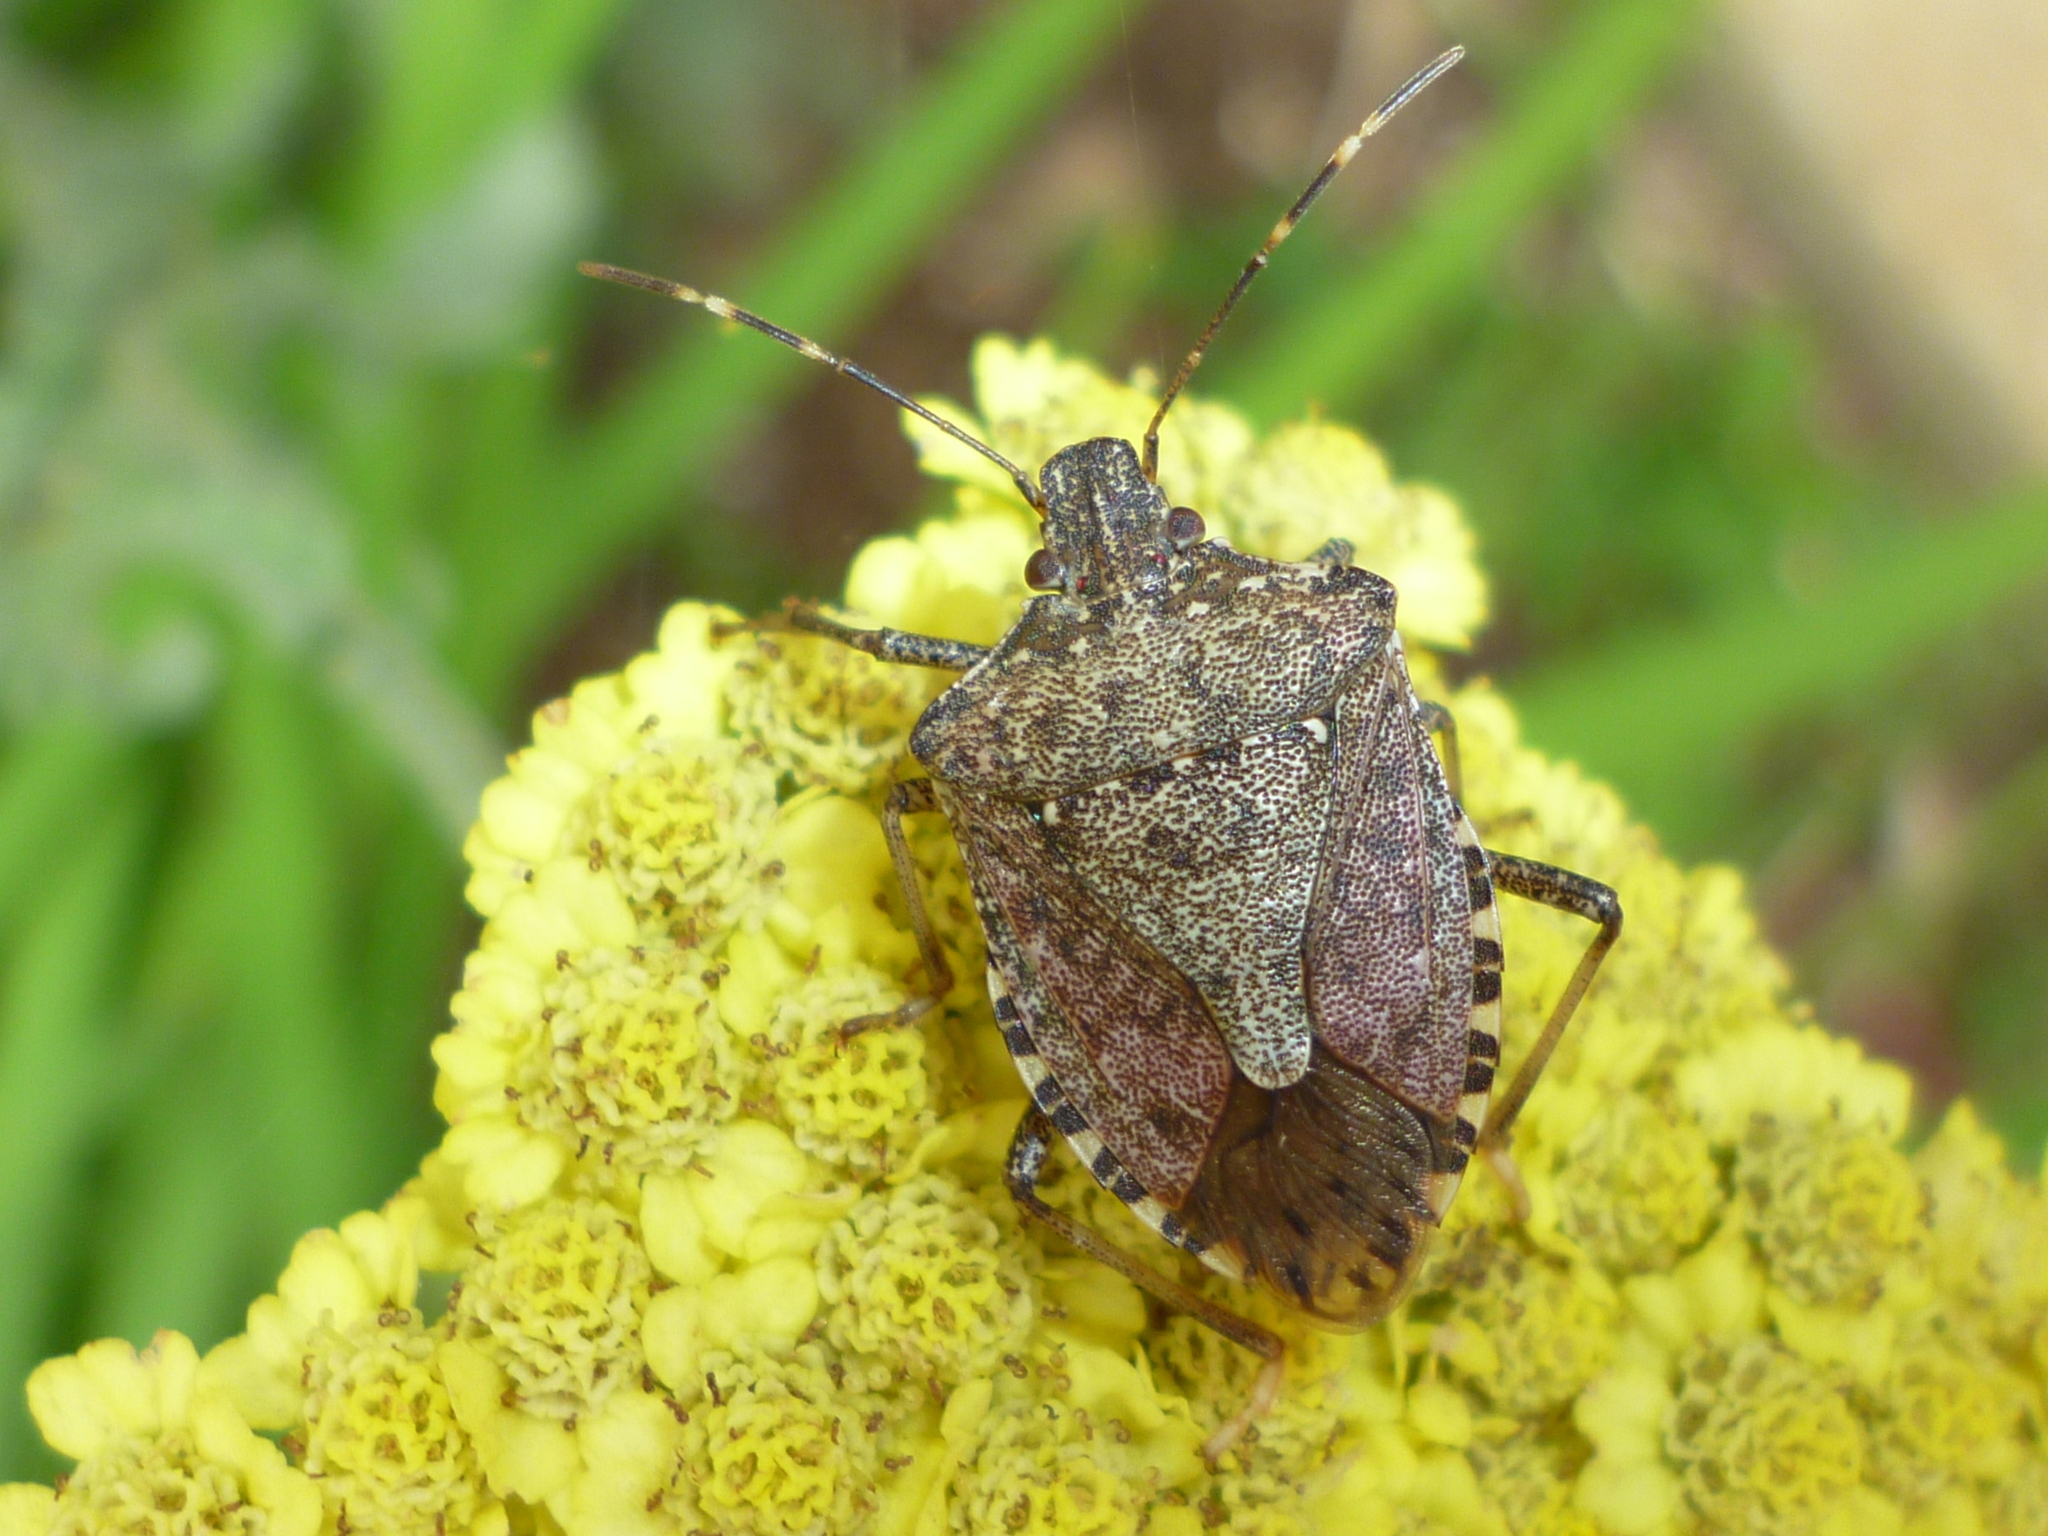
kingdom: Animalia
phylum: Arthropoda
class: Insecta
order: Hemiptera
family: Pentatomidae
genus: Halyomorpha
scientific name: Halyomorpha halys
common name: Brown marmorated stink bug
